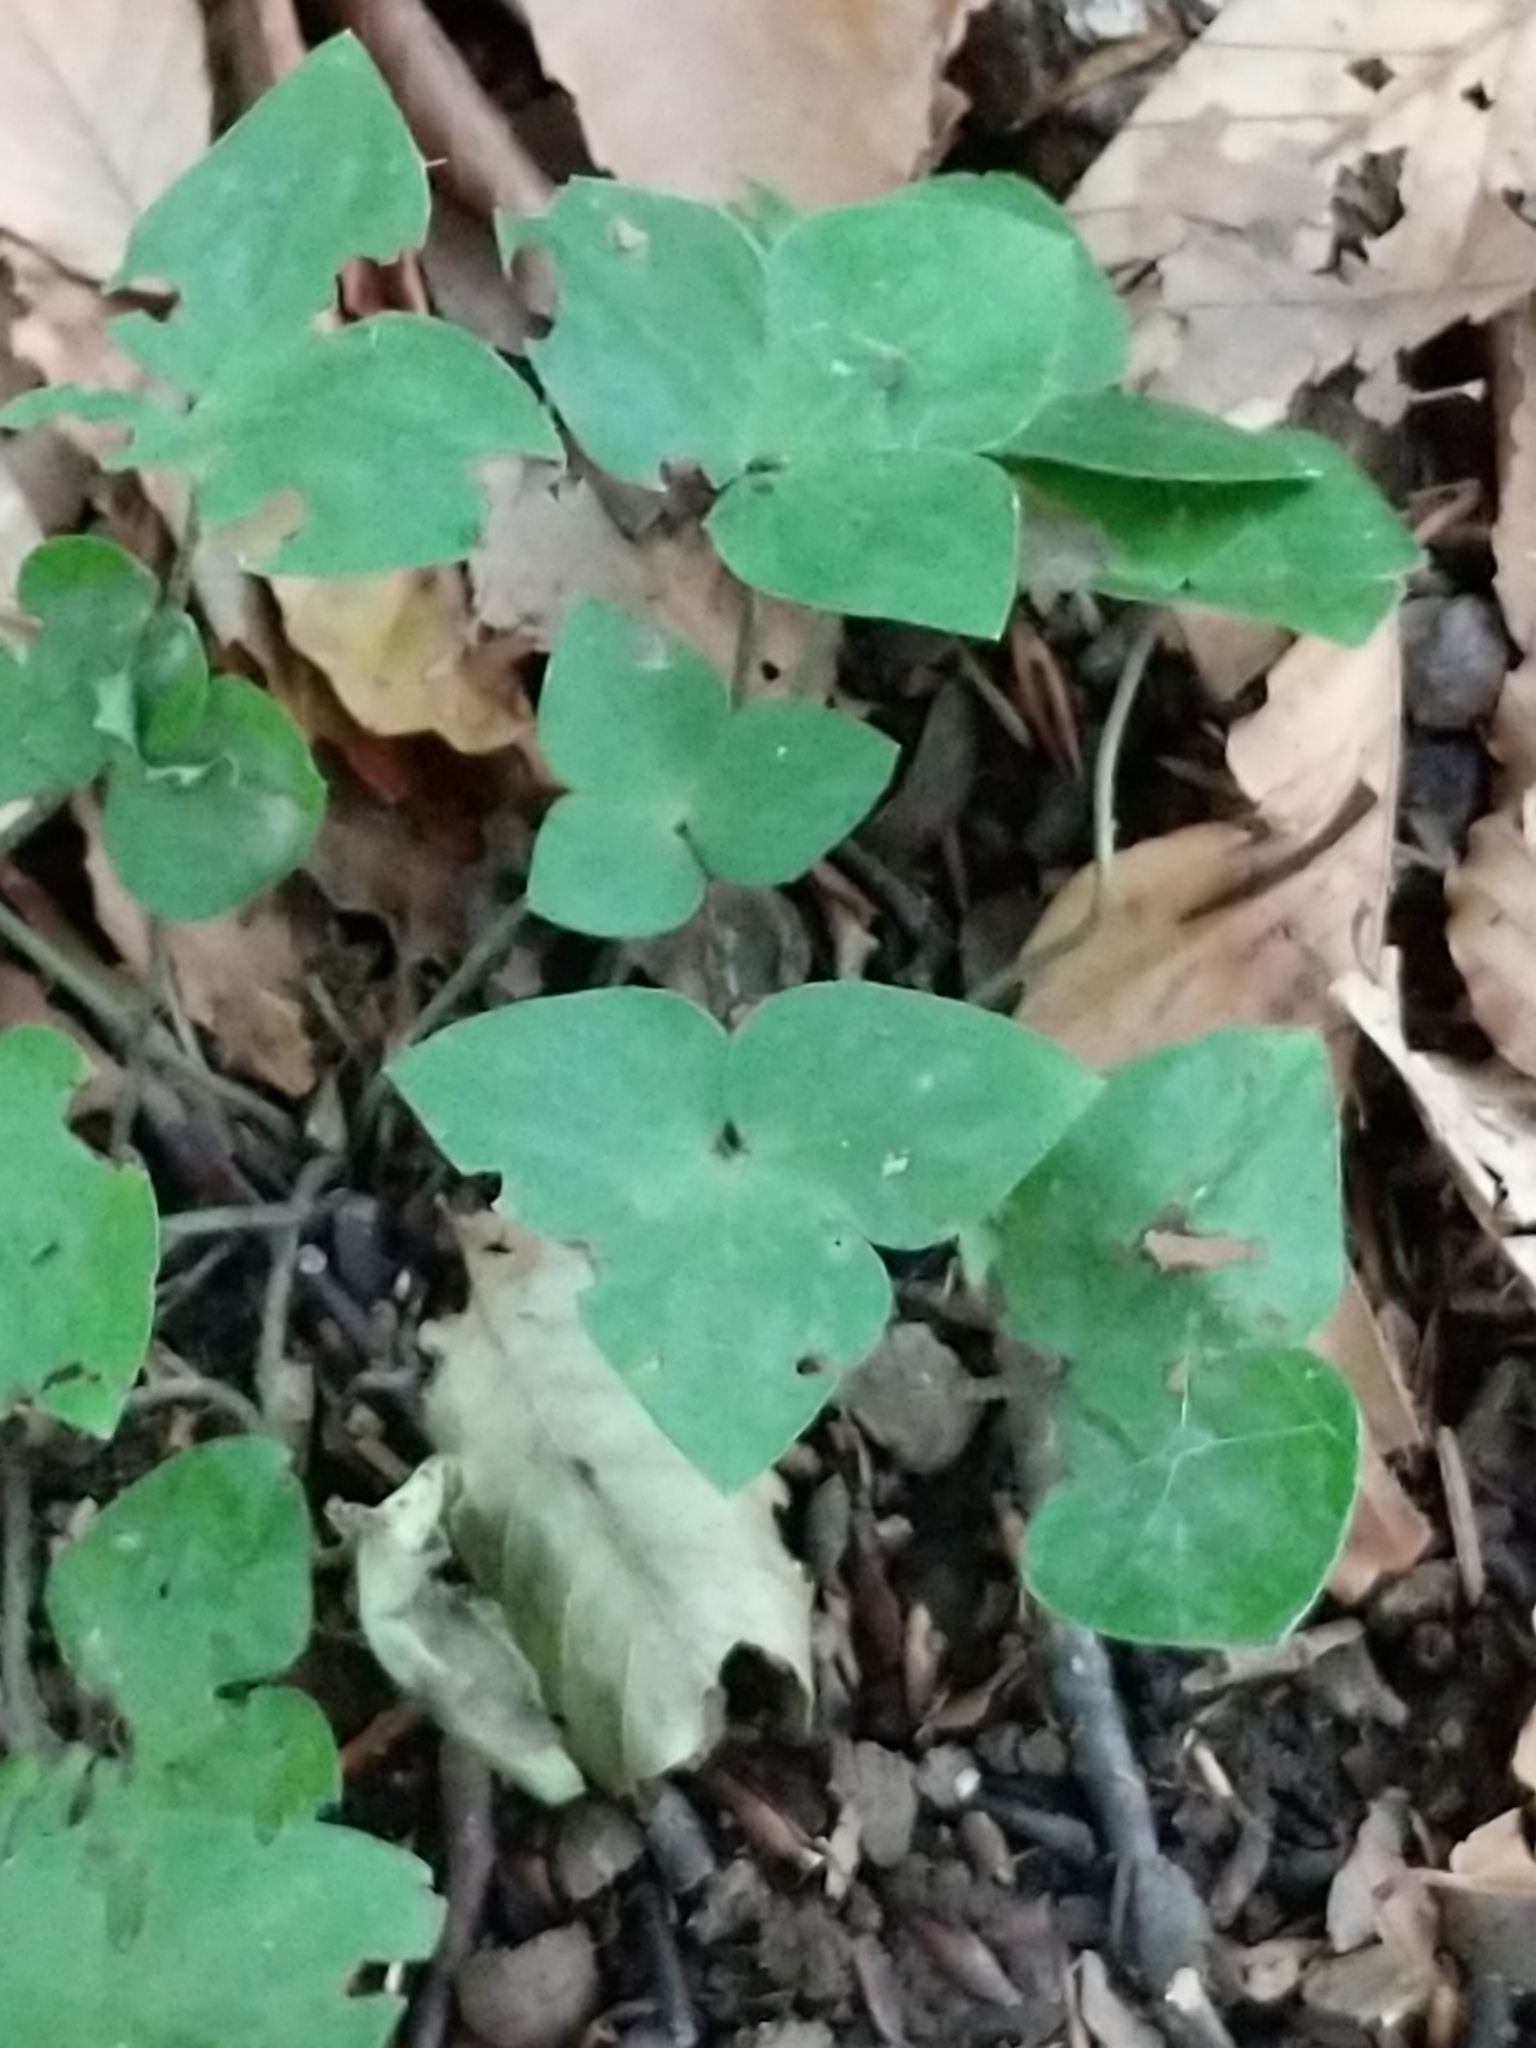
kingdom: Plantae
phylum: Tracheophyta
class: Magnoliopsida
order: Ranunculales
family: Ranunculaceae
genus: Hepatica
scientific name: Hepatica acutiloba
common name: Sharp-lobed hepatica
